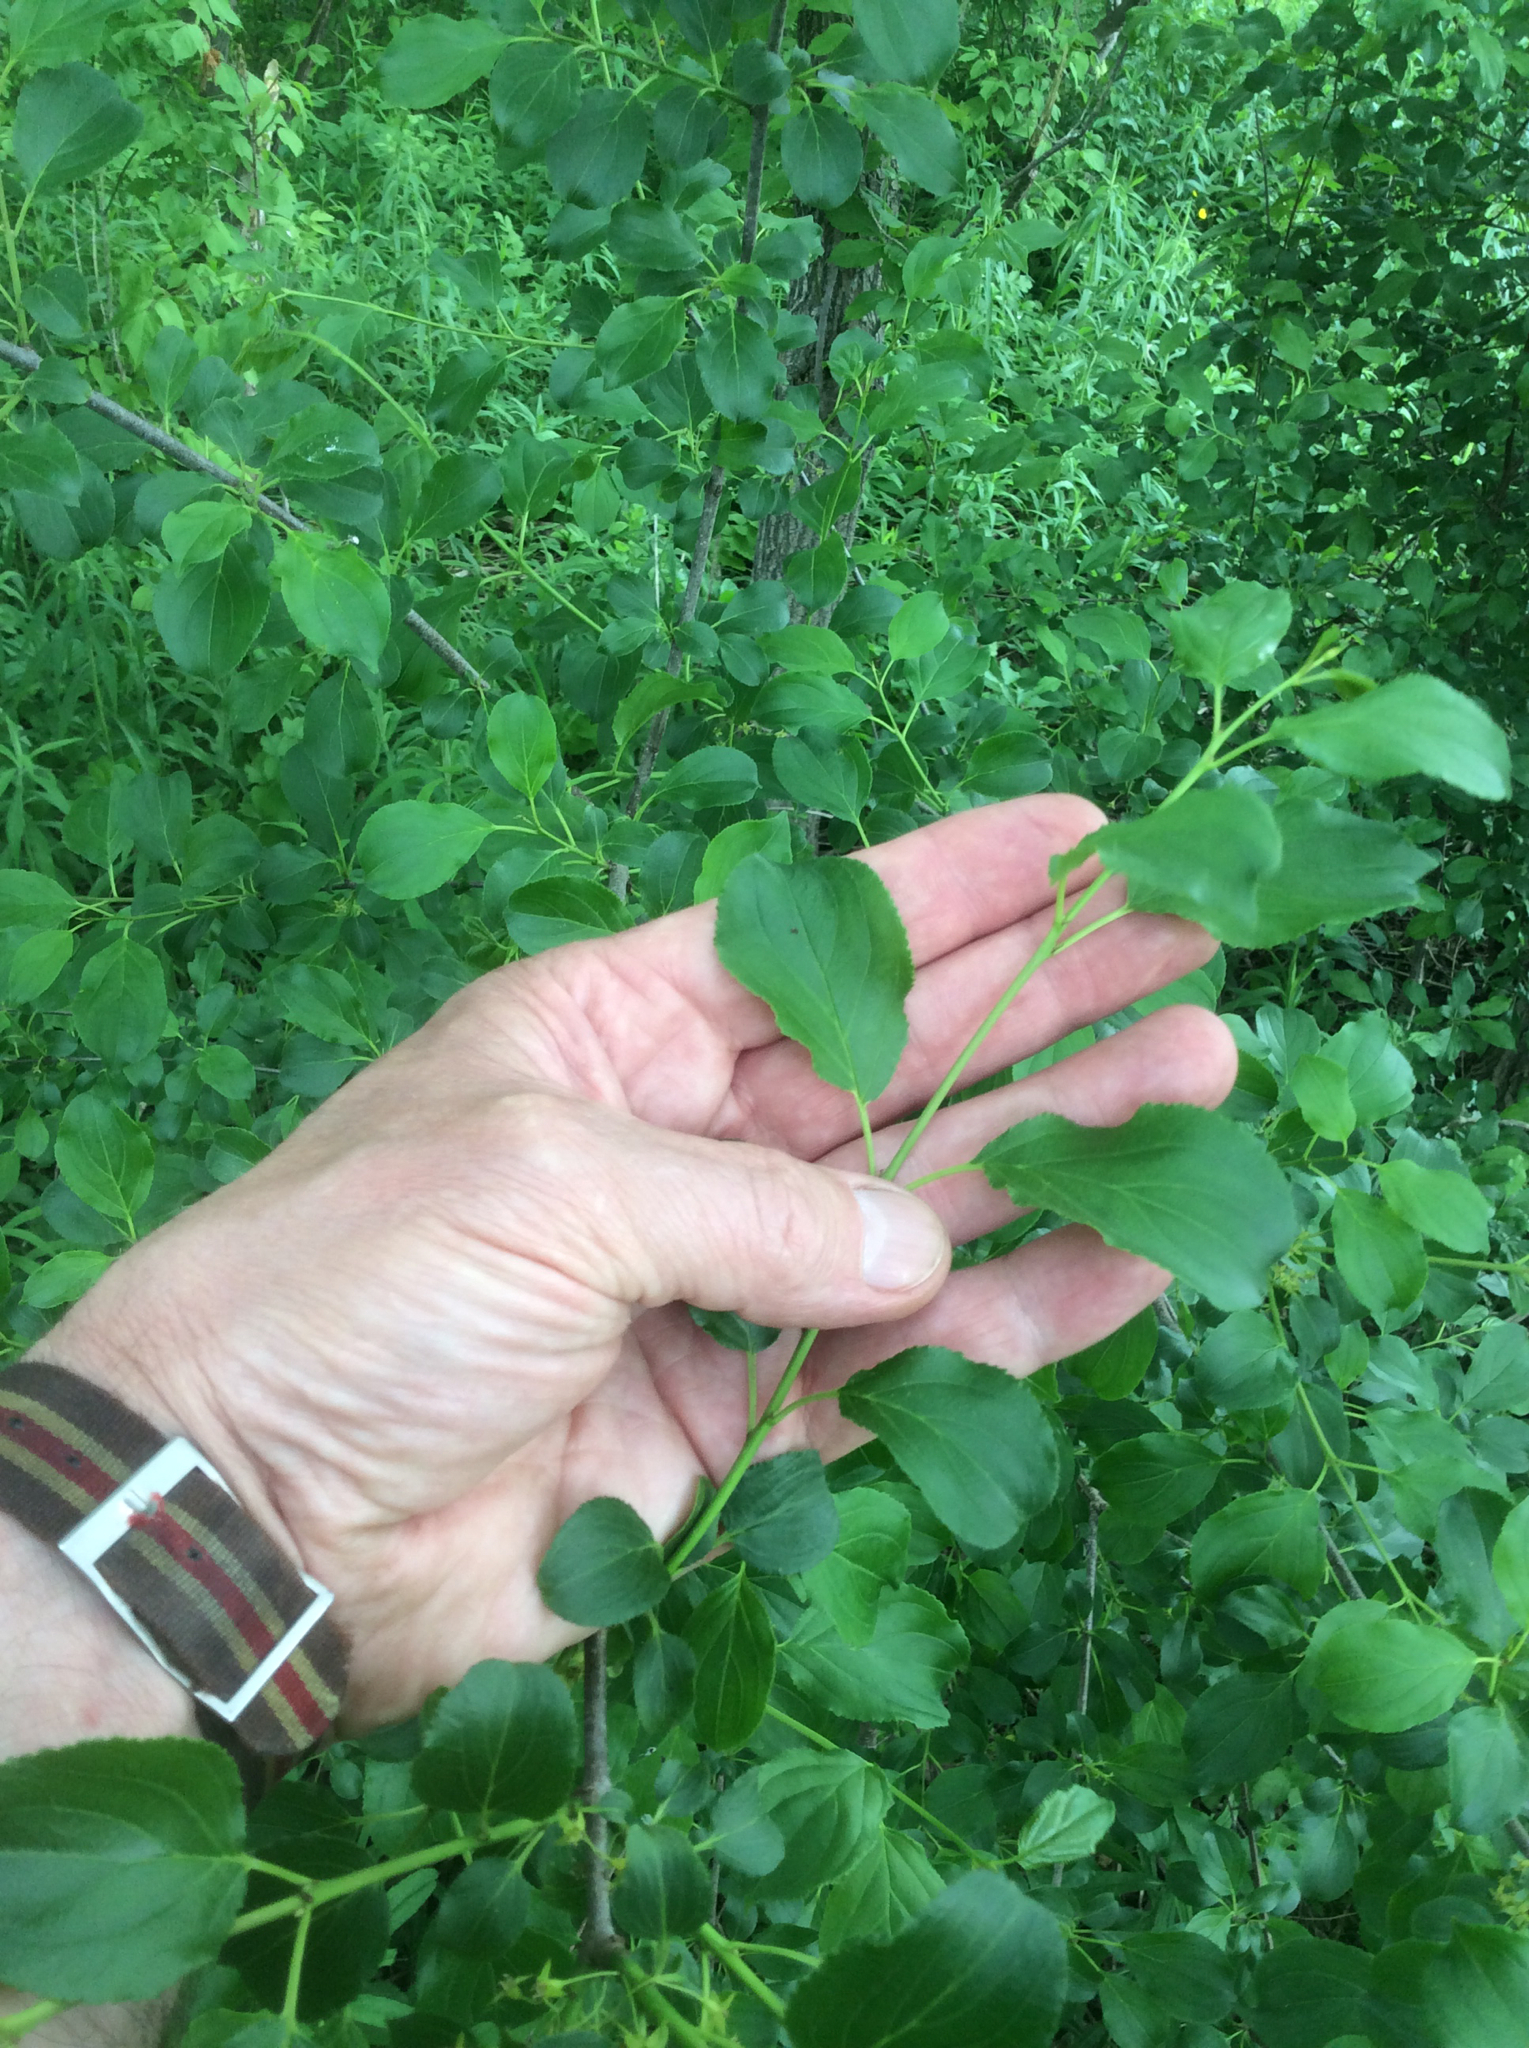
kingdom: Plantae
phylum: Tracheophyta
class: Magnoliopsida
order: Rosales
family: Rhamnaceae
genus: Rhamnus
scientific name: Rhamnus cathartica
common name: Common buckthorn
